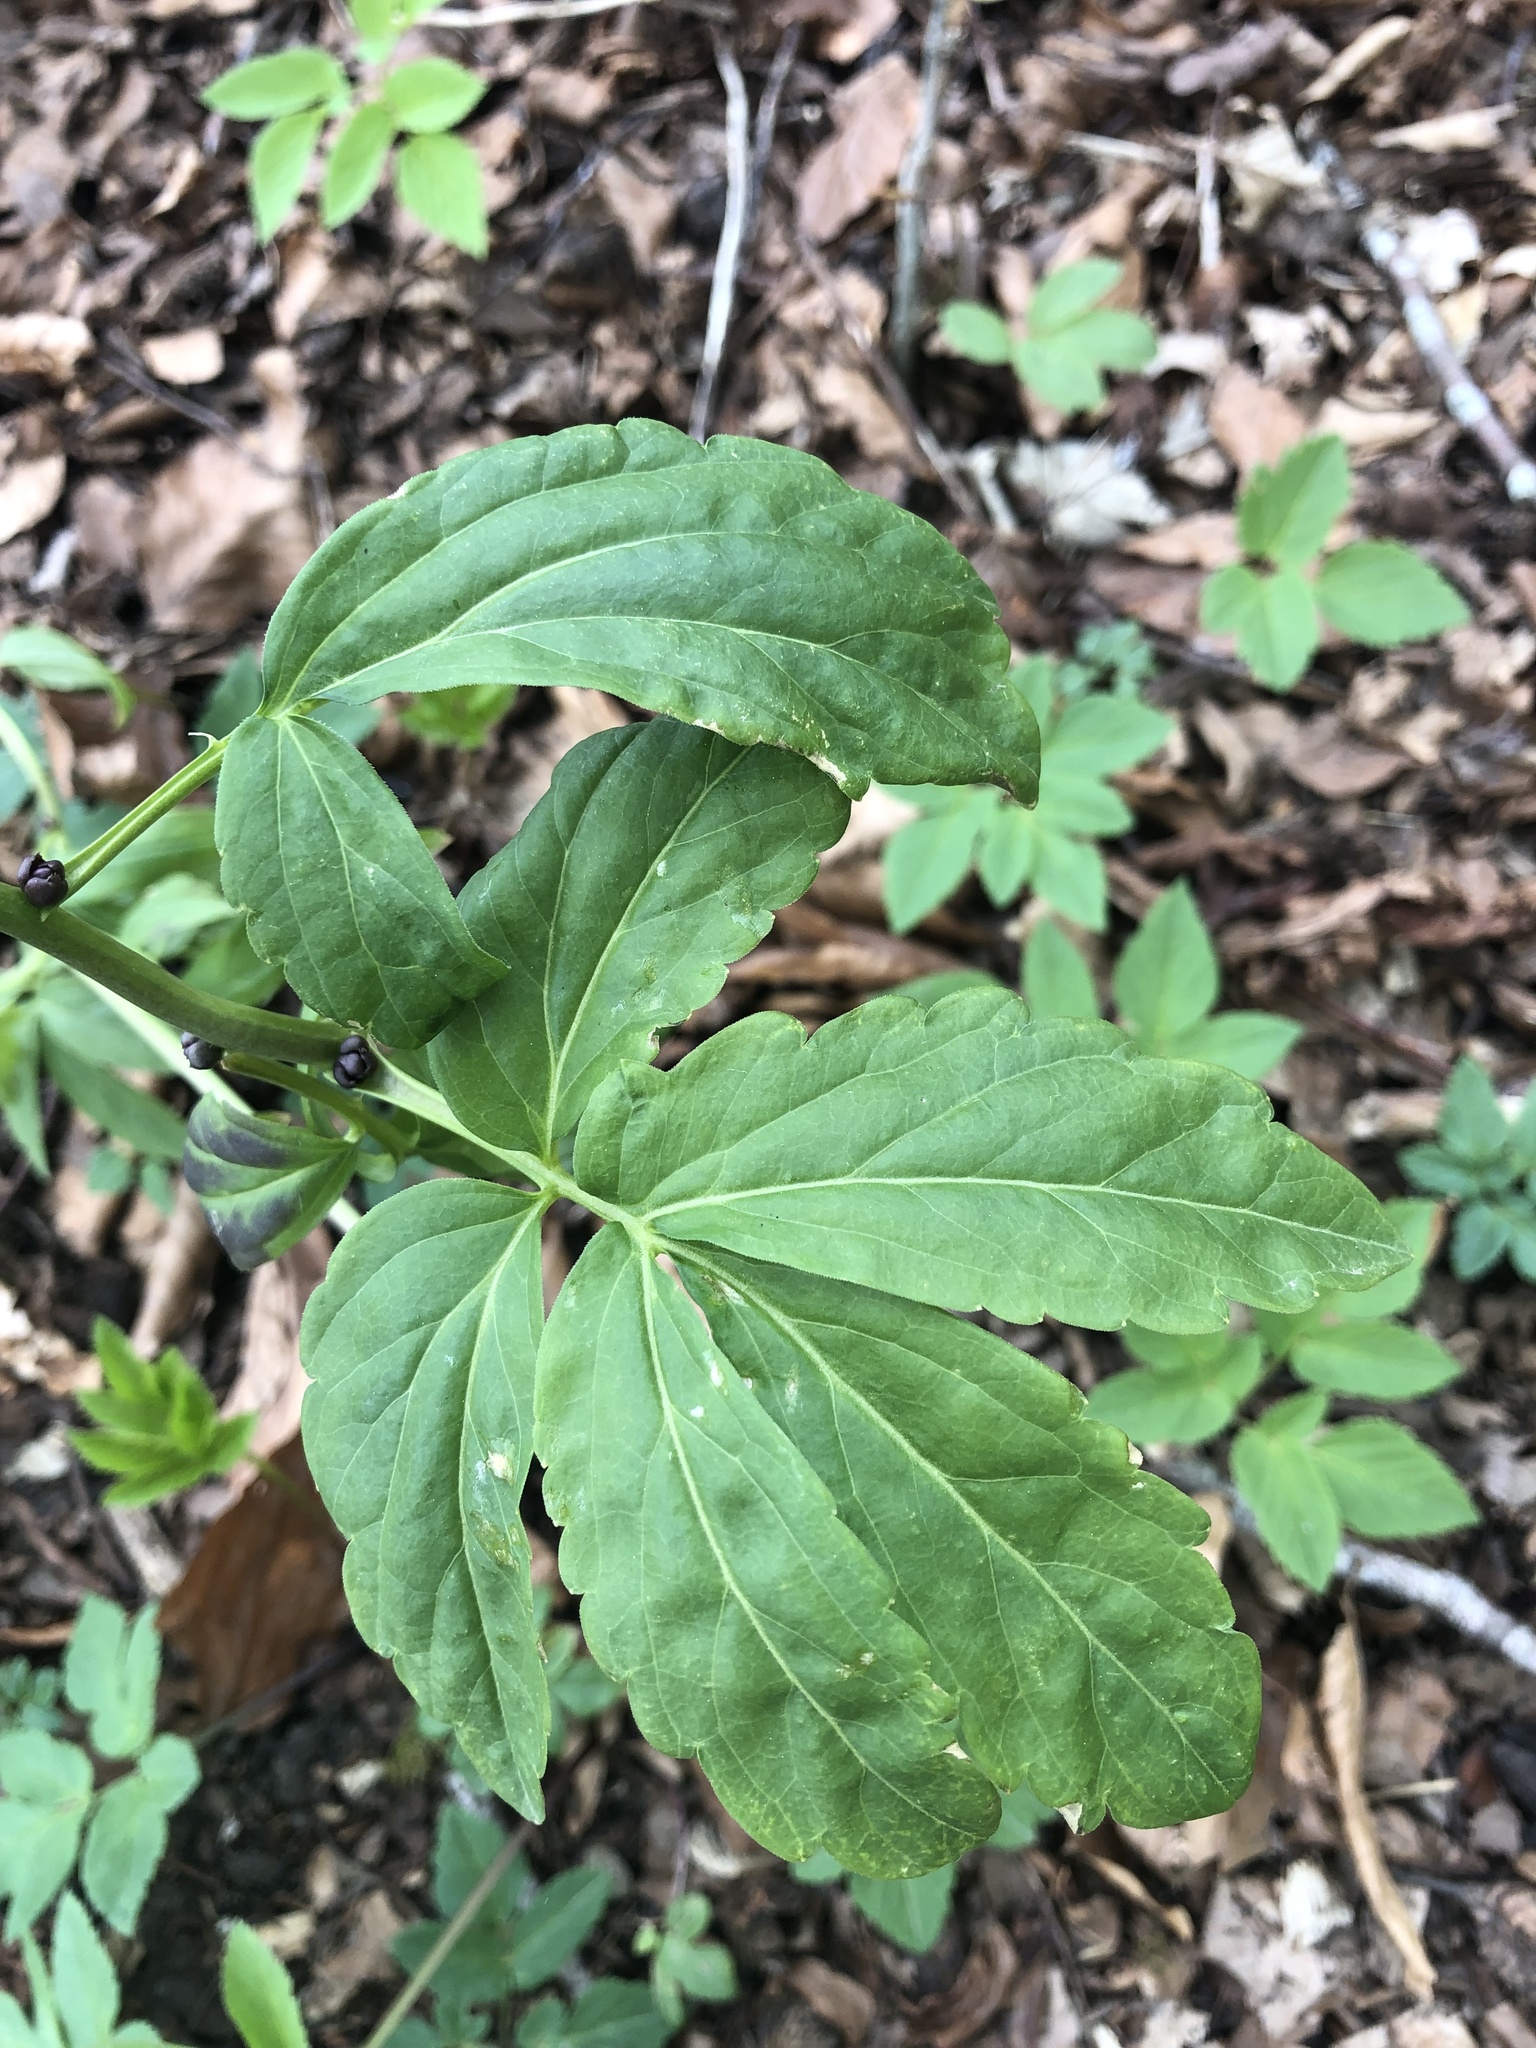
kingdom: Plantae
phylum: Tracheophyta
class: Magnoliopsida
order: Brassicales
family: Brassicaceae
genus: Cardamine
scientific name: Cardamine bulbifera
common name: Coralroot bittercress
